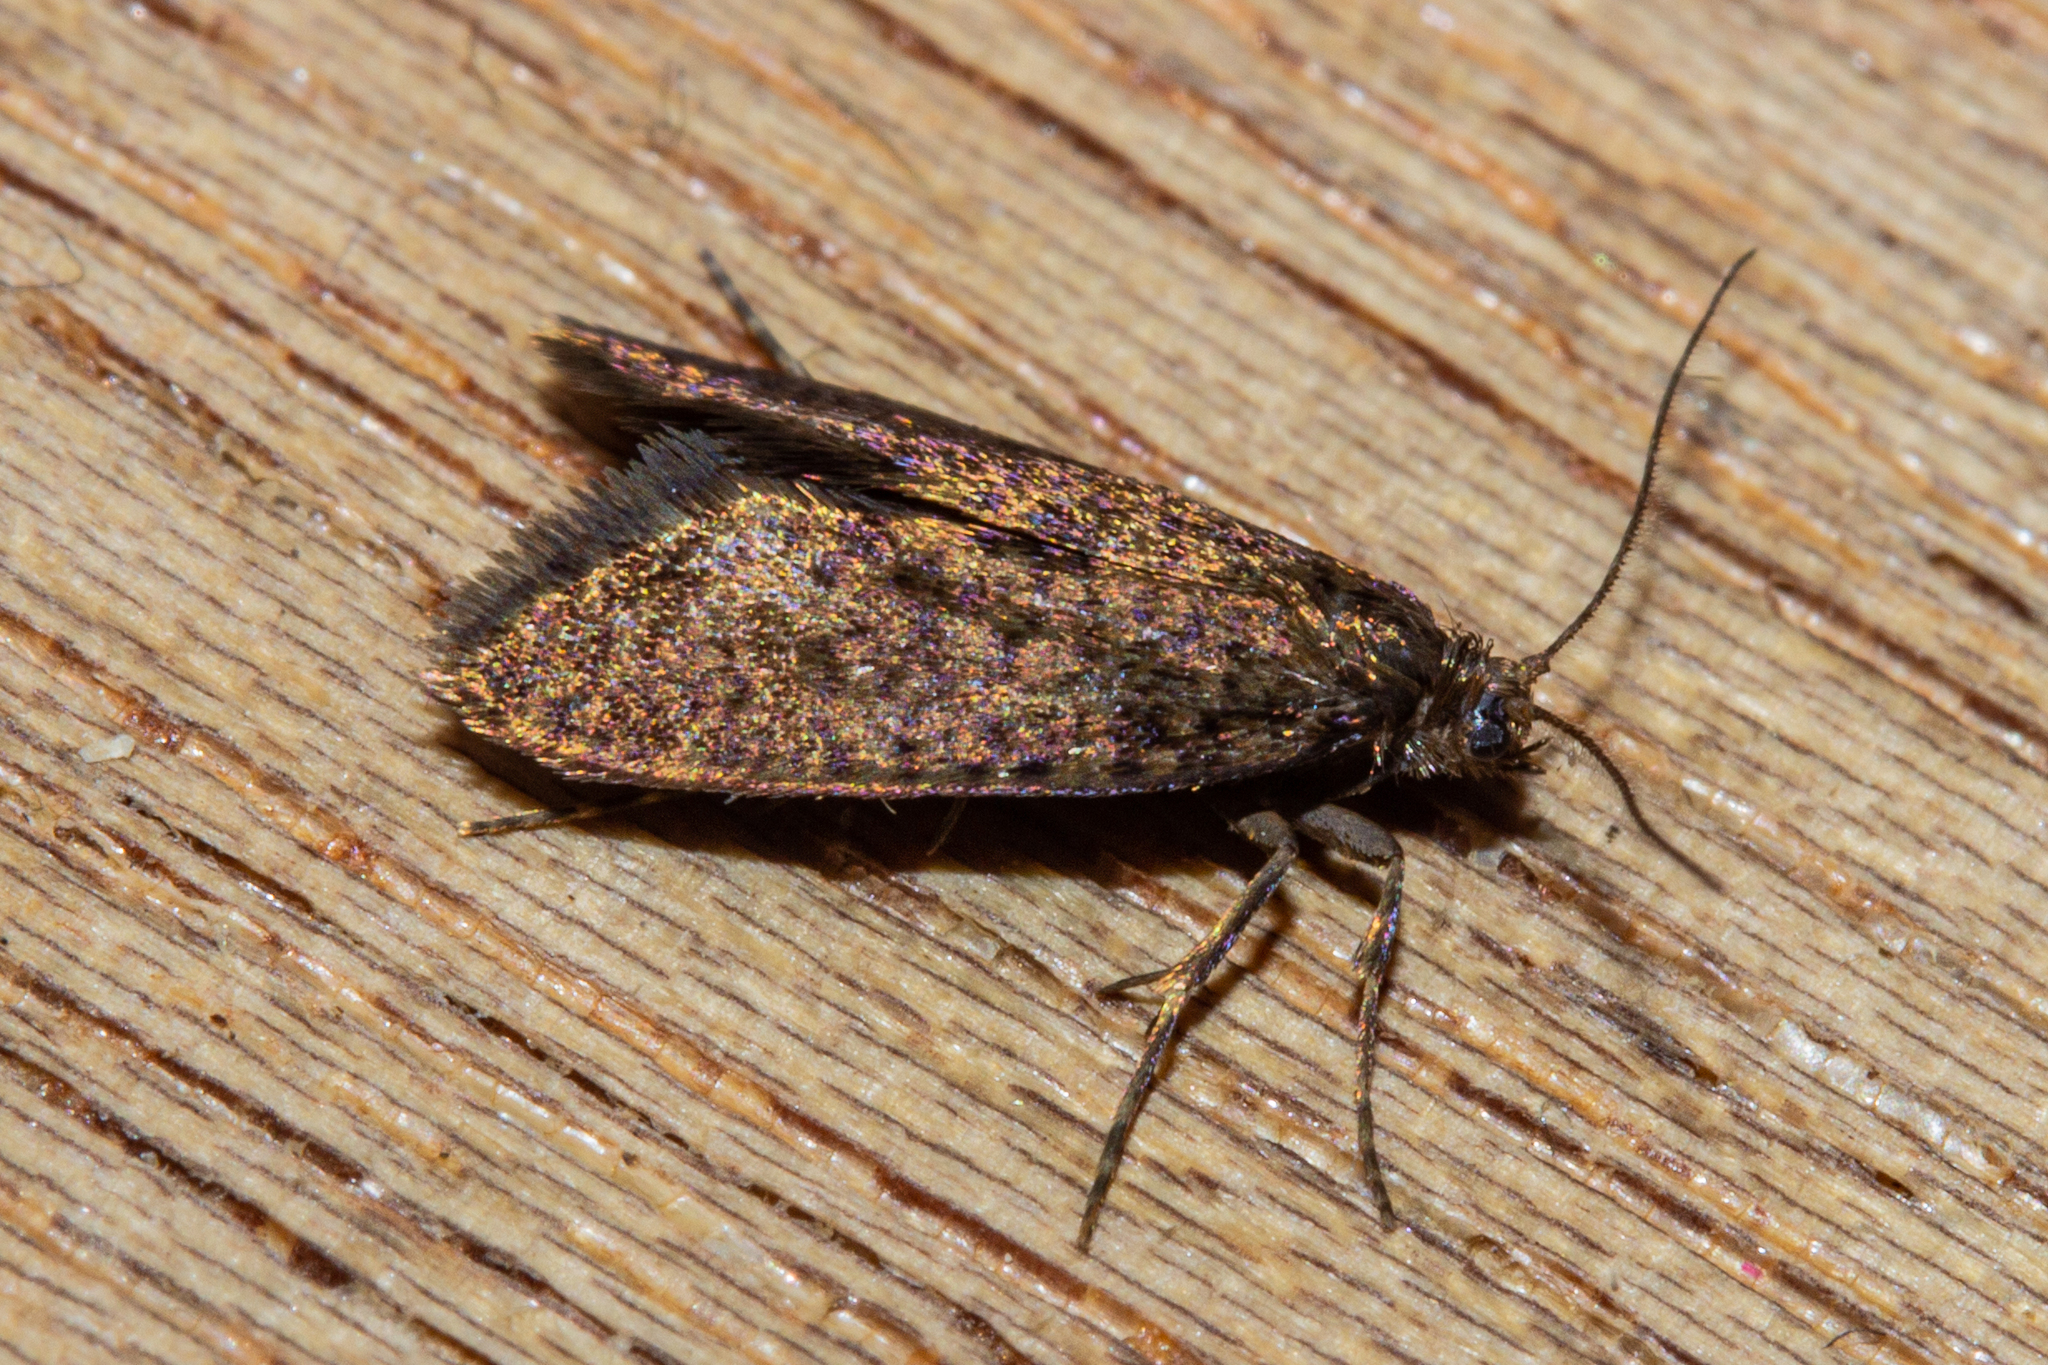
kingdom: Animalia
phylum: Arthropoda
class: Insecta
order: Lepidoptera
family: Psychidae
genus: Mallobathra
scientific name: Mallobathra homalopa
